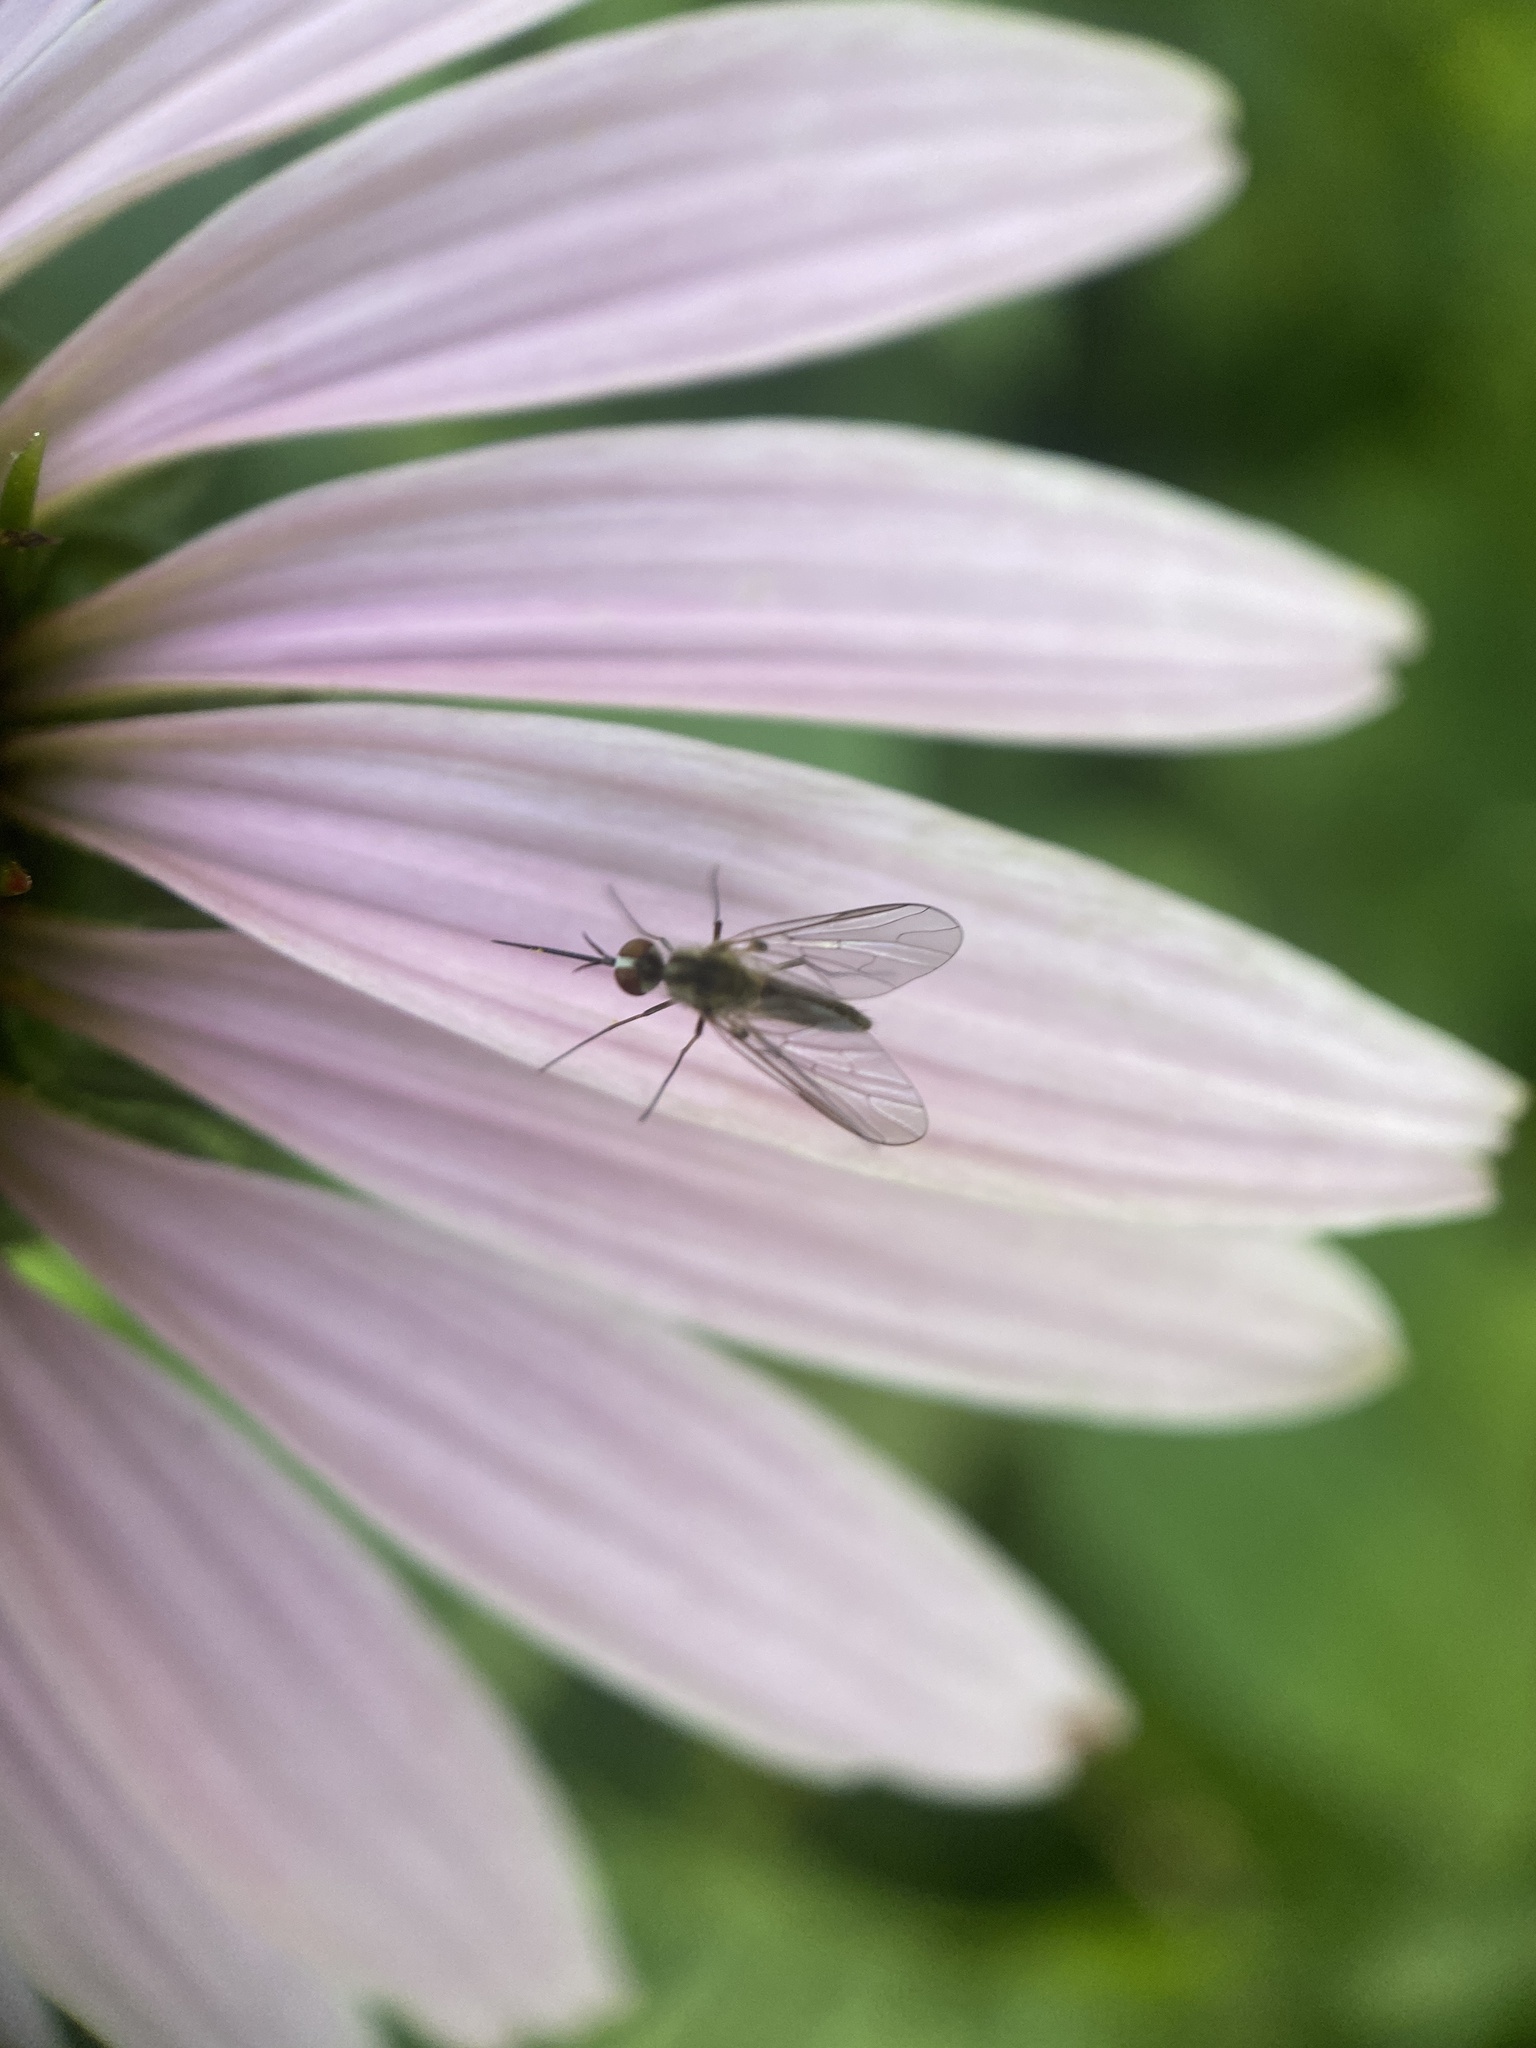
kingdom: Animalia
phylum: Arthropoda
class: Insecta
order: Diptera
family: Bombyliidae
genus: Geron
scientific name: Geron calvus
